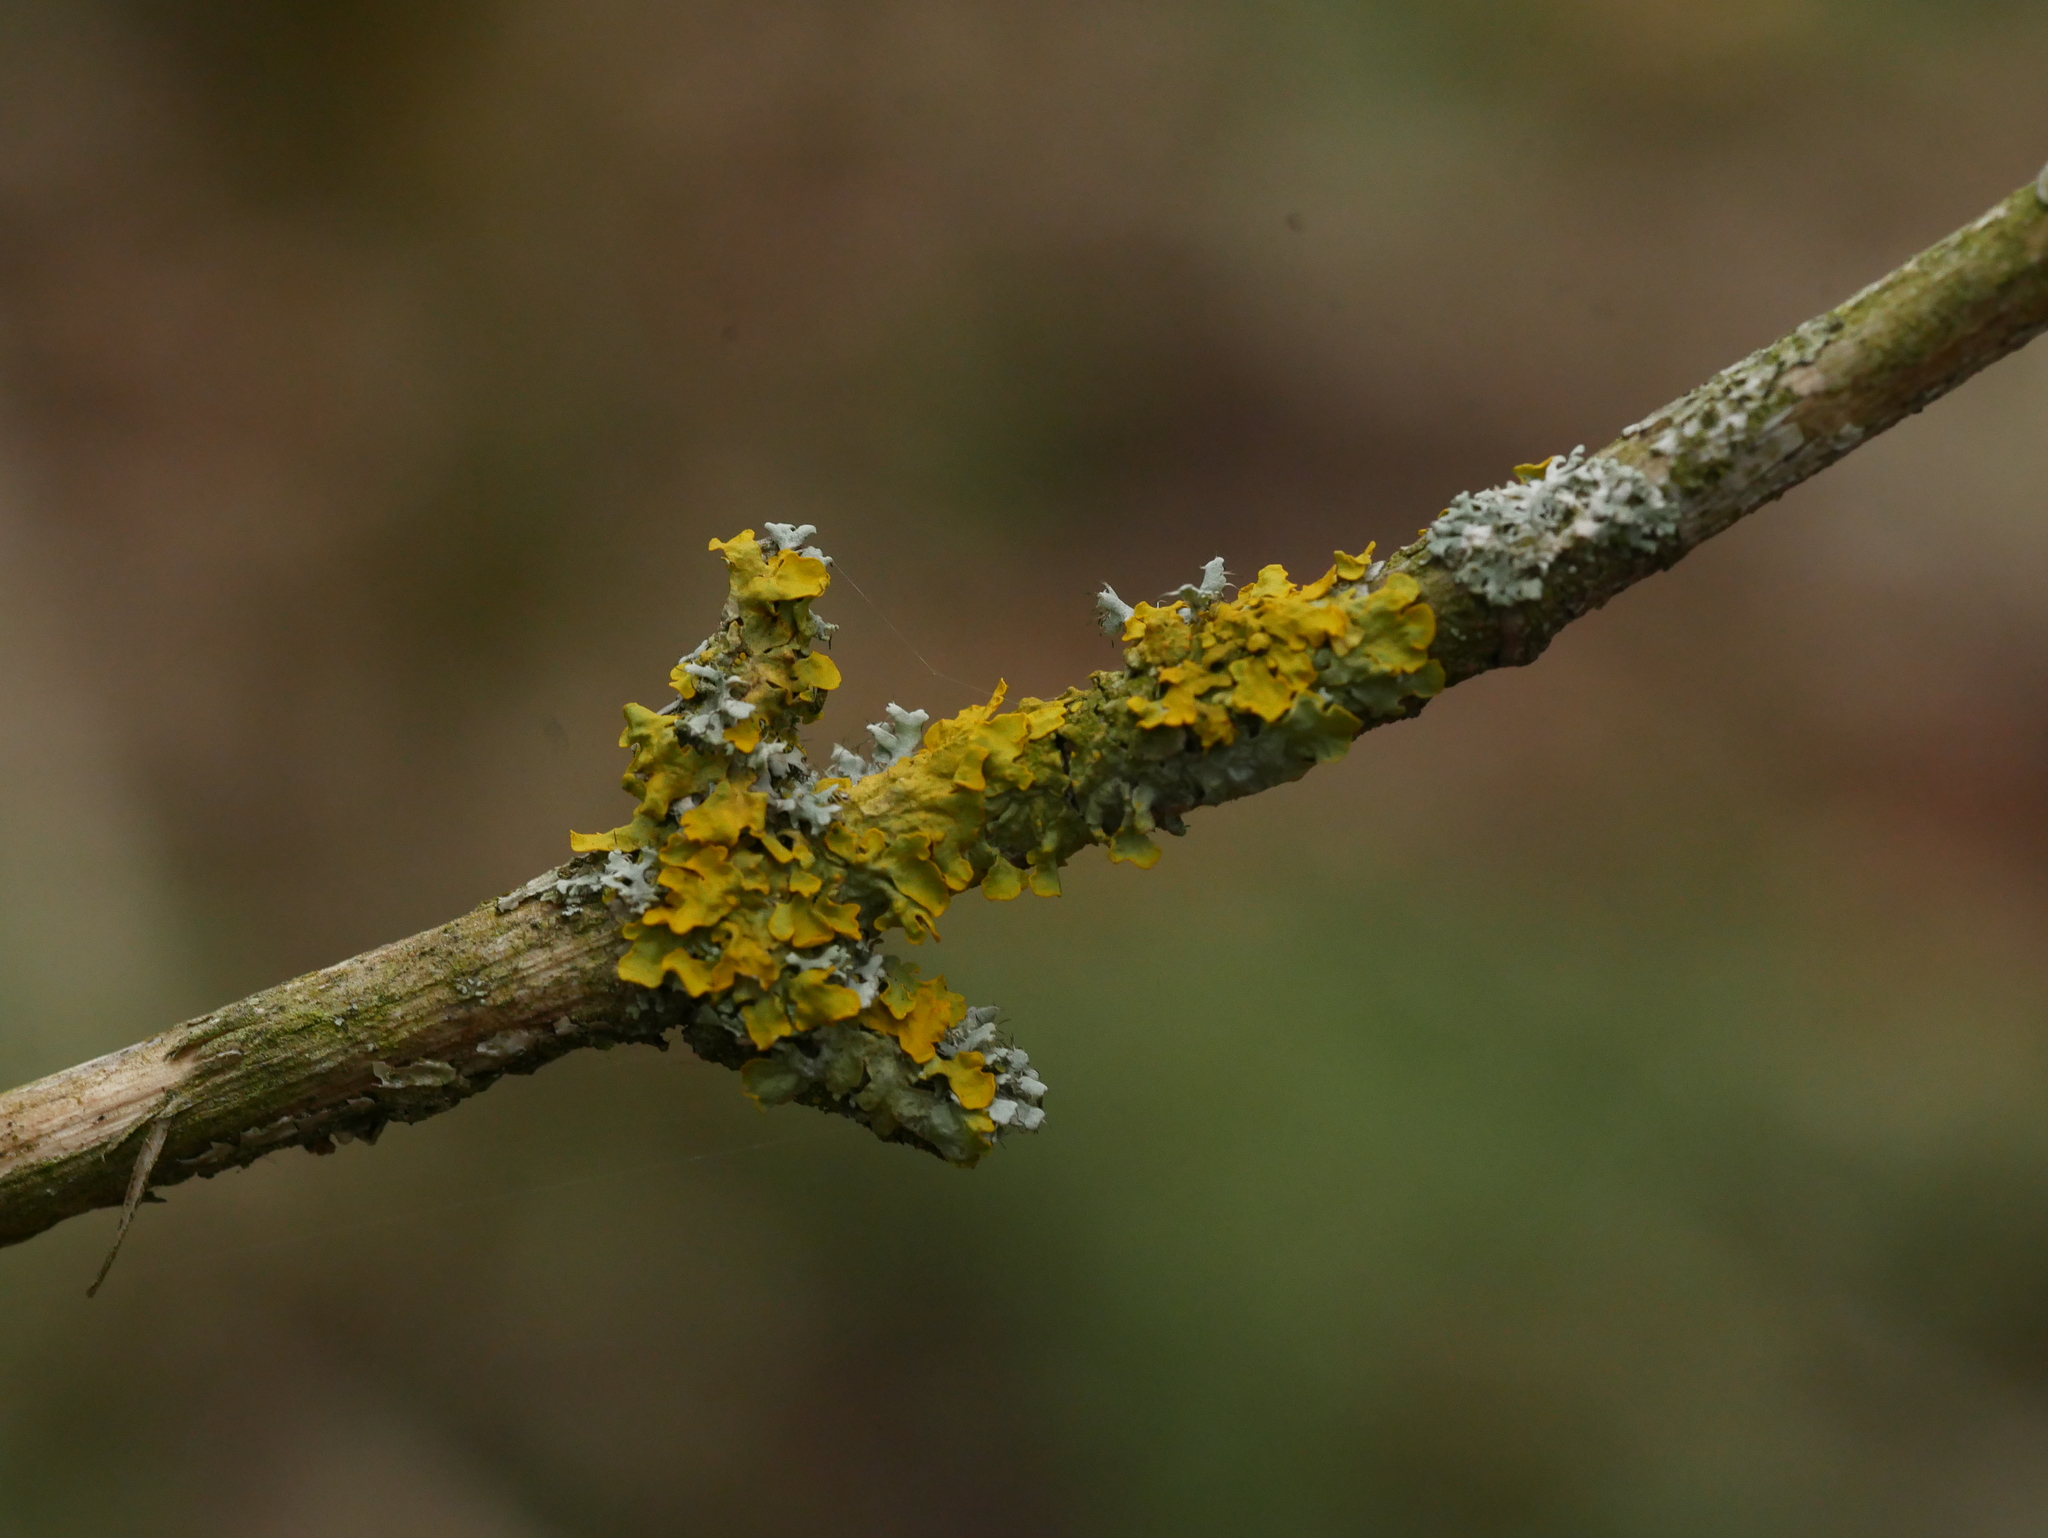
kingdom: Fungi
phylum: Ascomycota
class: Lecanoromycetes
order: Teloschistales
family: Teloschistaceae
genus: Xanthoria
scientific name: Xanthoria parietina
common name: Common orange lichen
